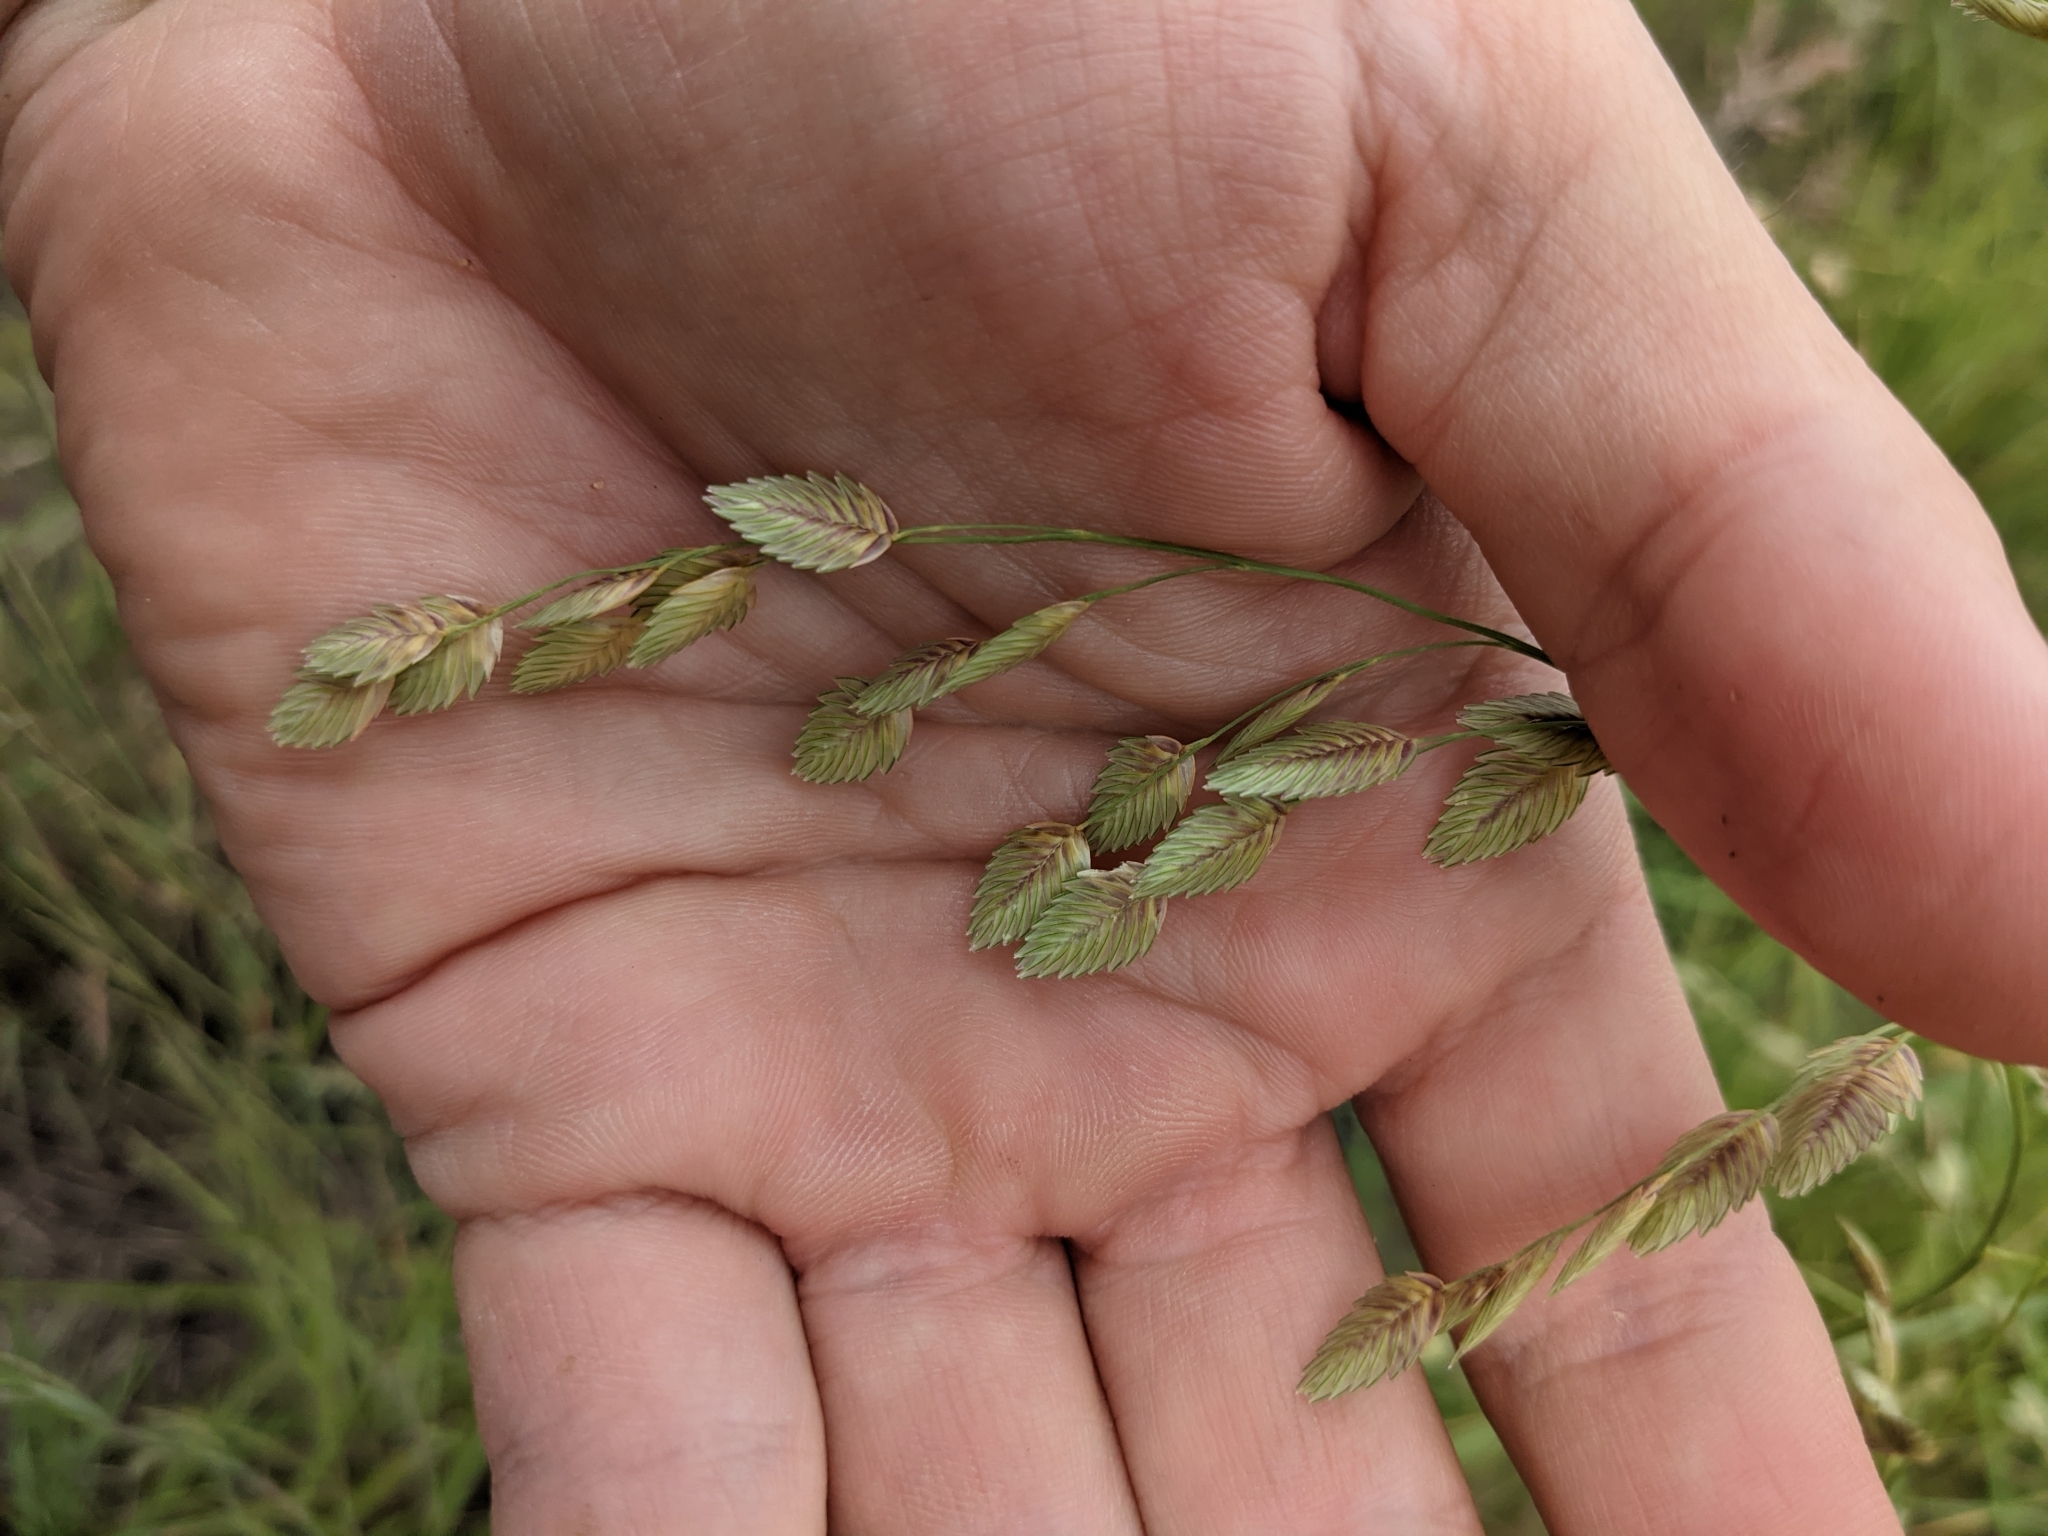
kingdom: Plantae
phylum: Tracheophyta
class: Liliopsida
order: Poales
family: Poaceae
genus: Eragrostis
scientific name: Eragrostis superba
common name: Wilman lovegrass
